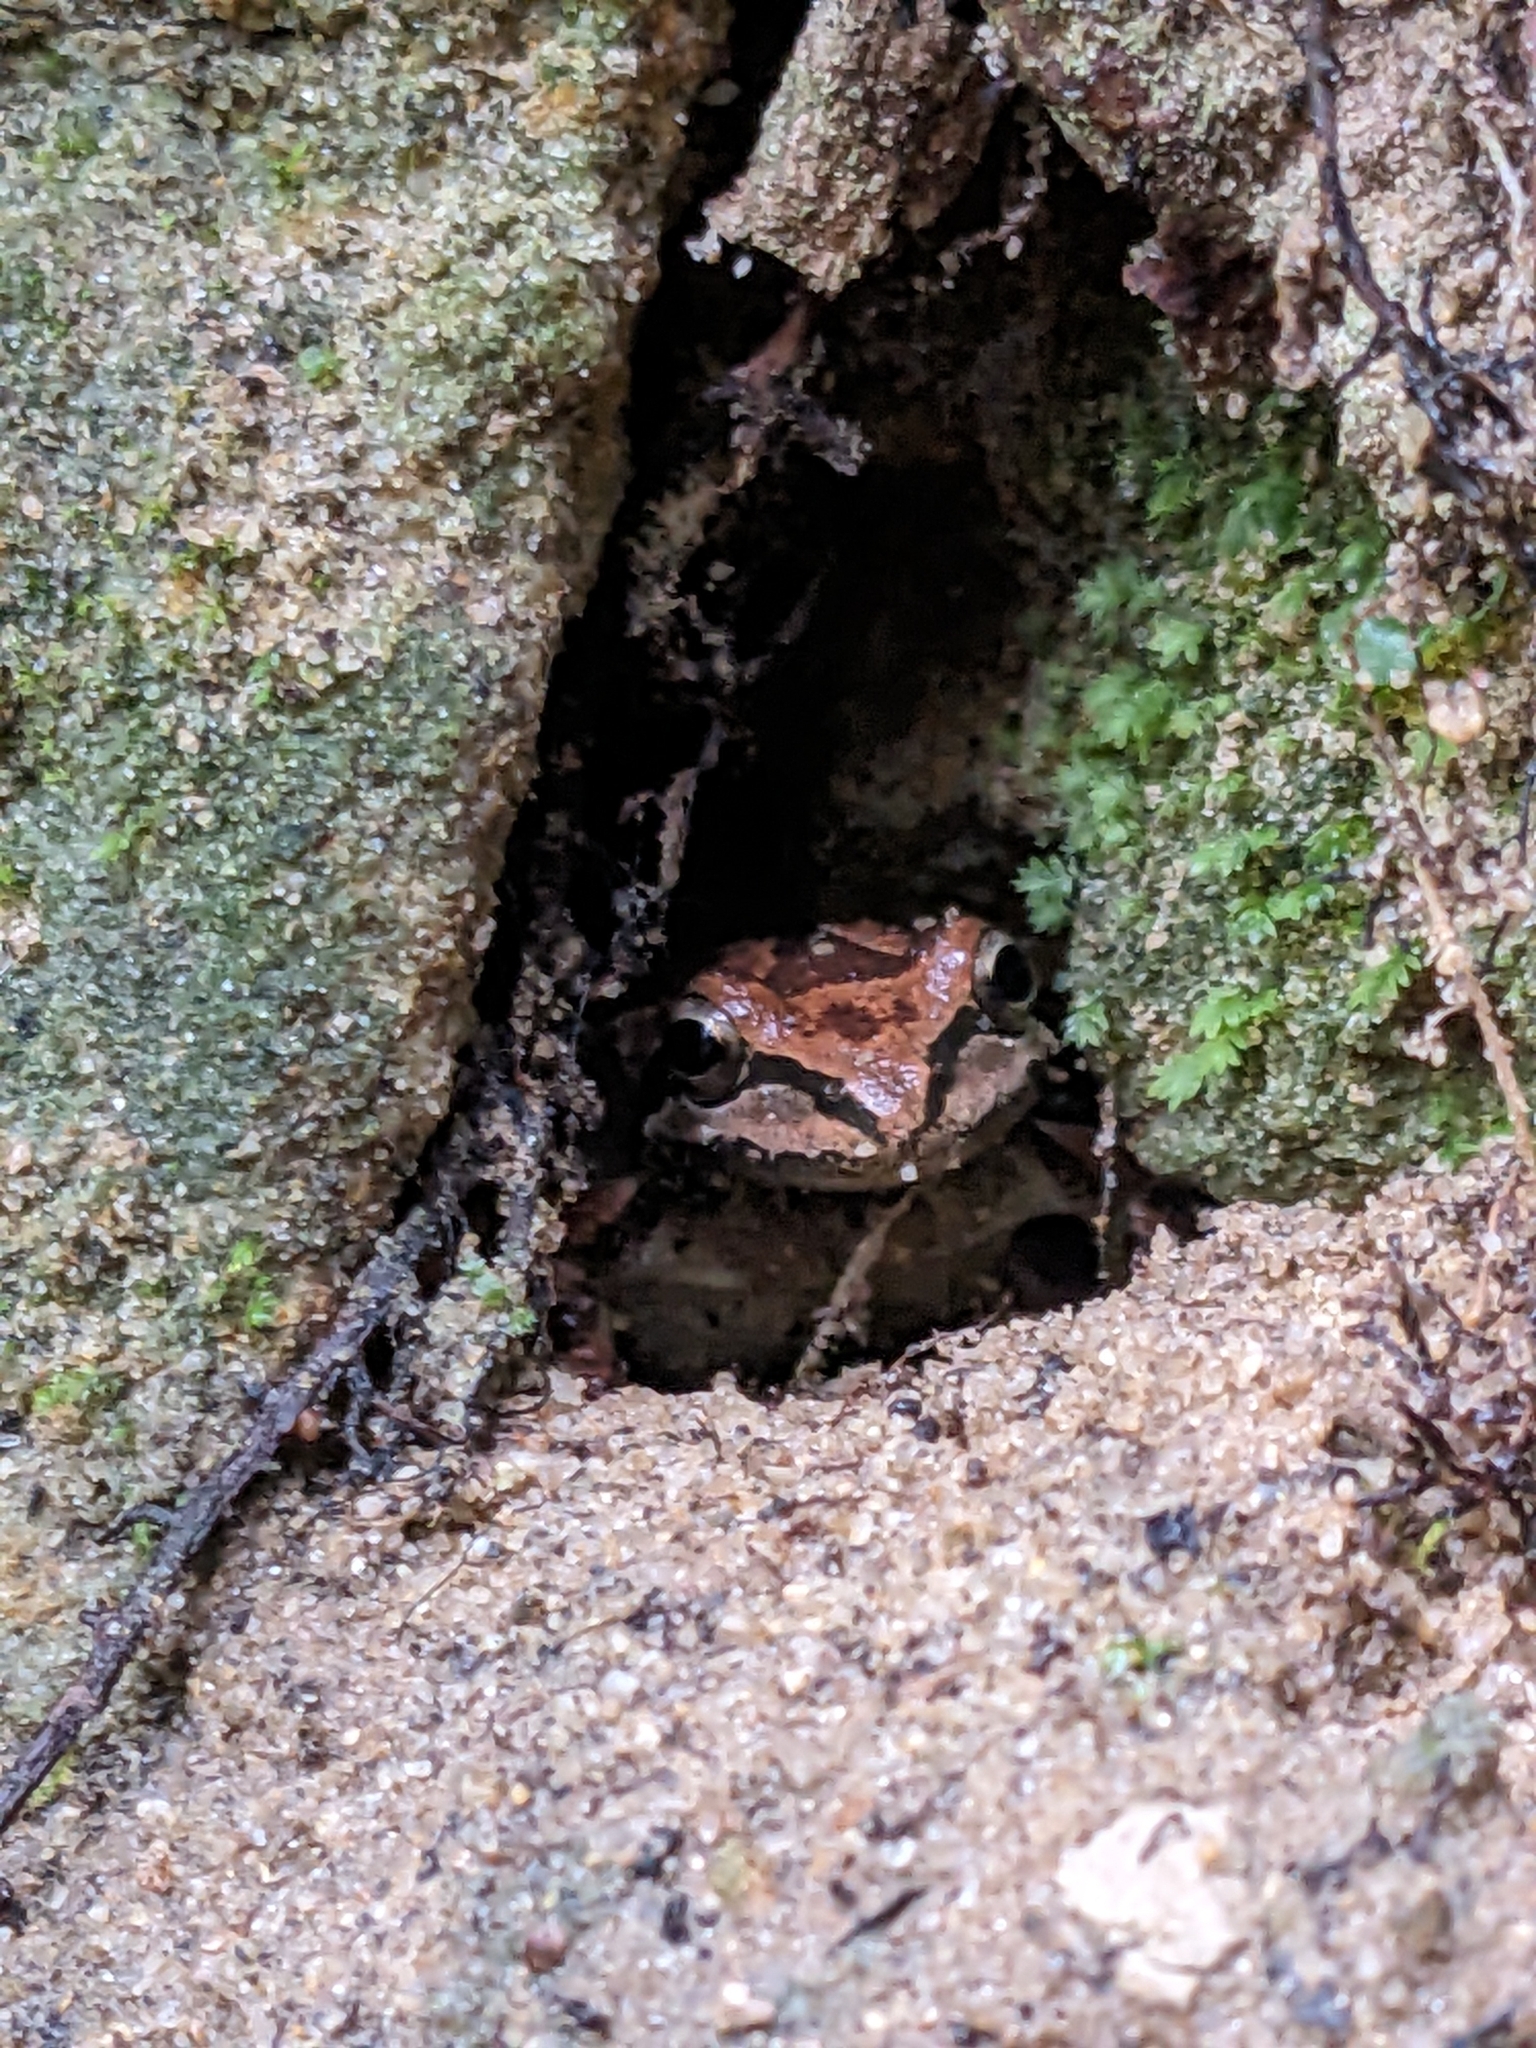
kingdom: Animalia
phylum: Chordata
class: Amphibia
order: Anura
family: Hylidae
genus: Pseudacris
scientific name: Pseudacris regilla
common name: Pacific chorus frog
